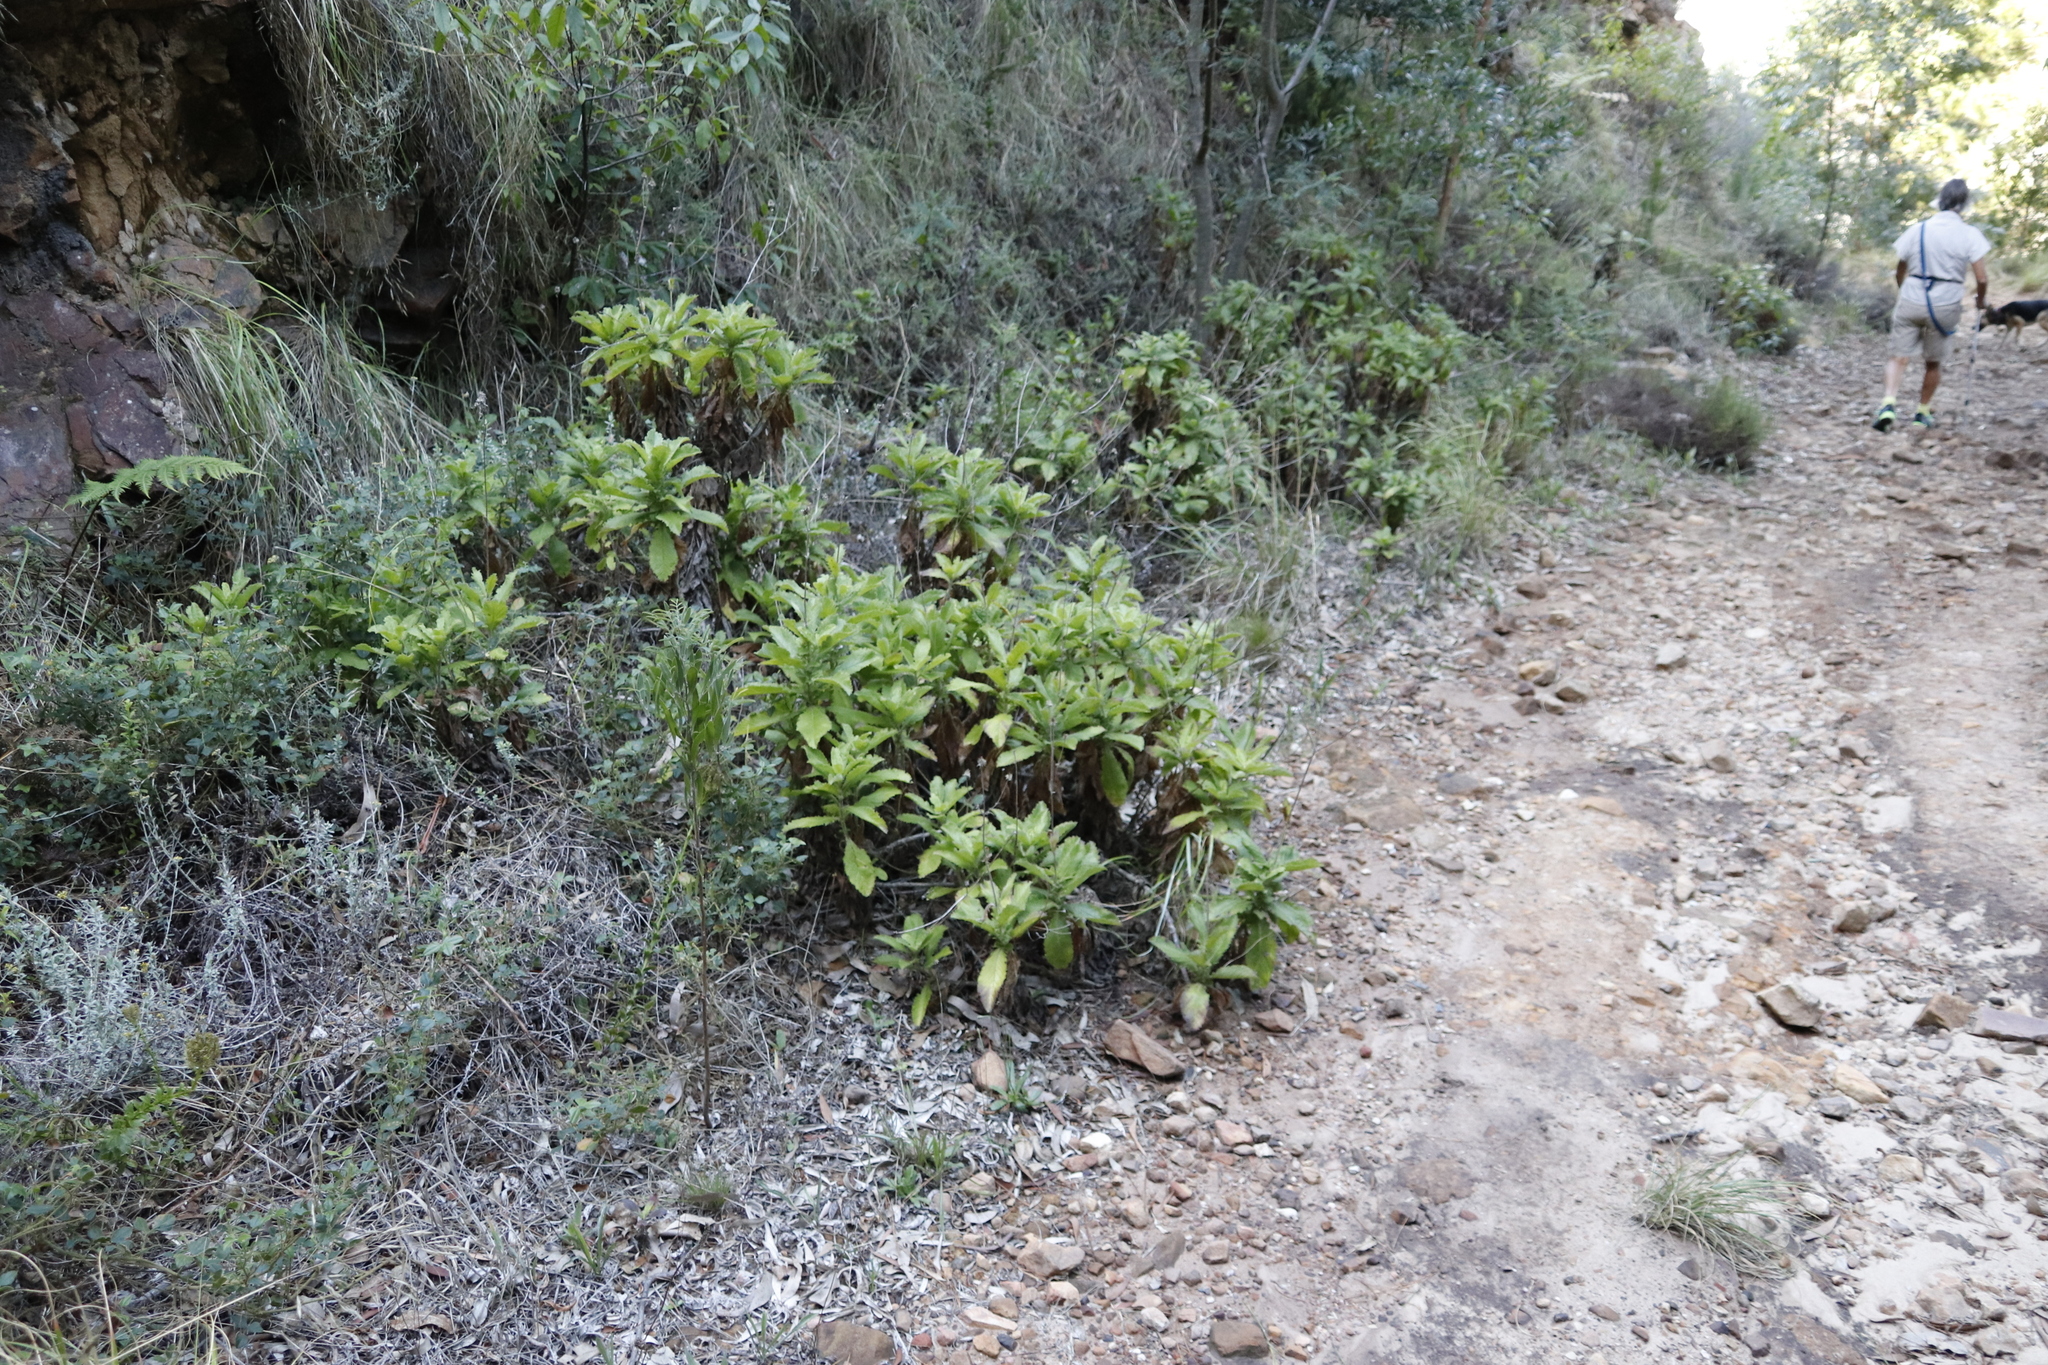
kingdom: Plantae
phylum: Tracheophyta
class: Magnoliopsida
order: Dipsacales
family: Caprifoliaceae
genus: Scabiosa
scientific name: Scabiosa africana
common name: Cape scabious
